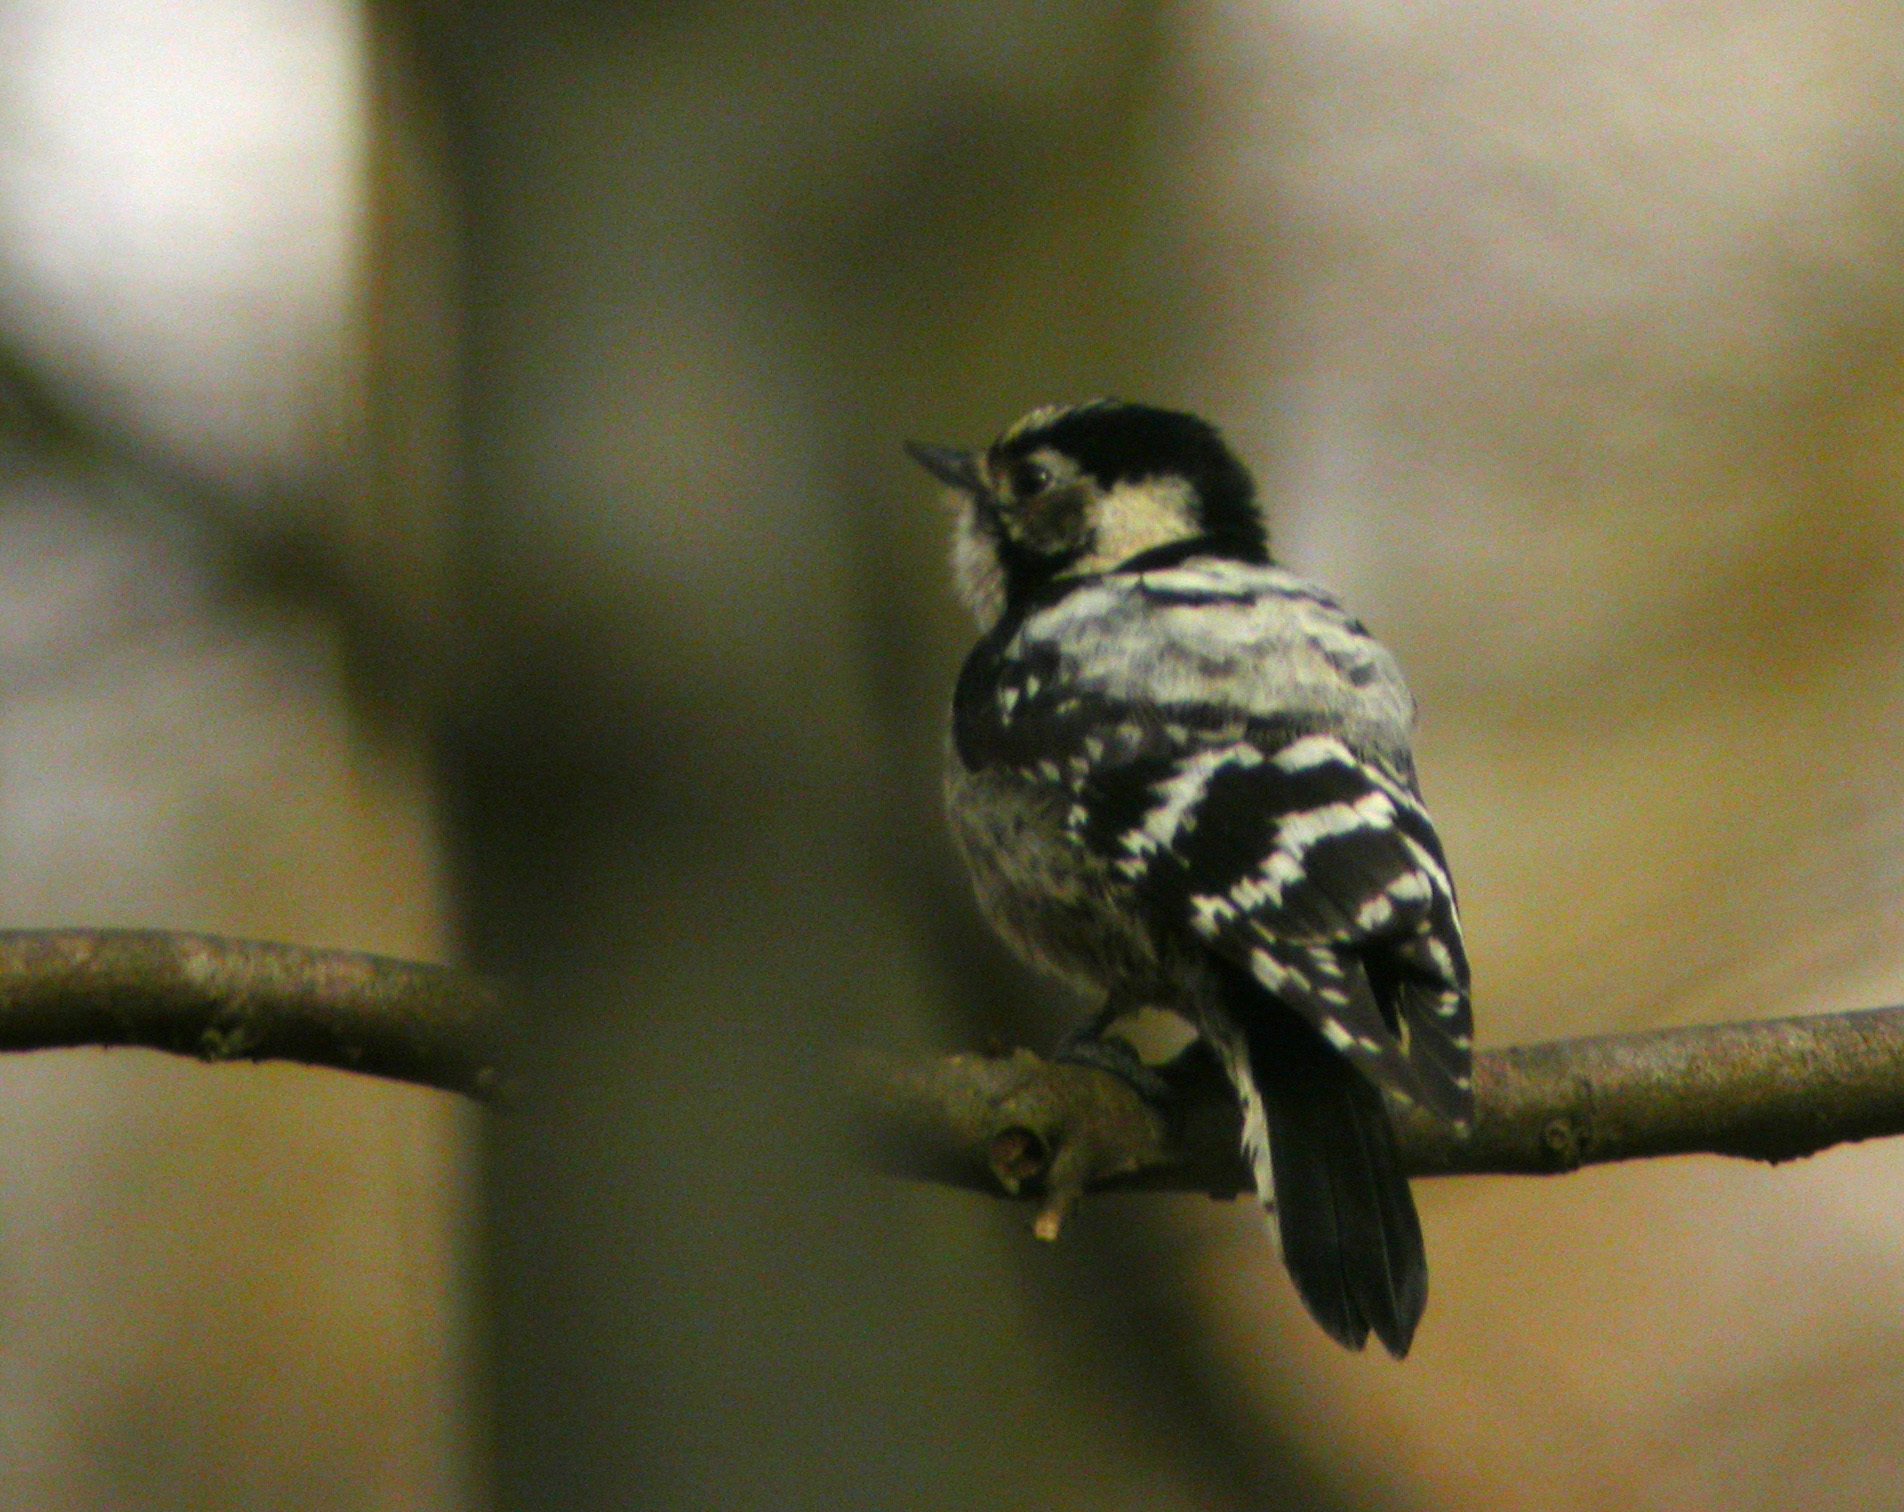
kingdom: Animalia
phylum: Chordata
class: Aves
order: Piciformes
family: Picidae
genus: Dryobates
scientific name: Dryobates minor
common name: Lesser spotted woodpecker
